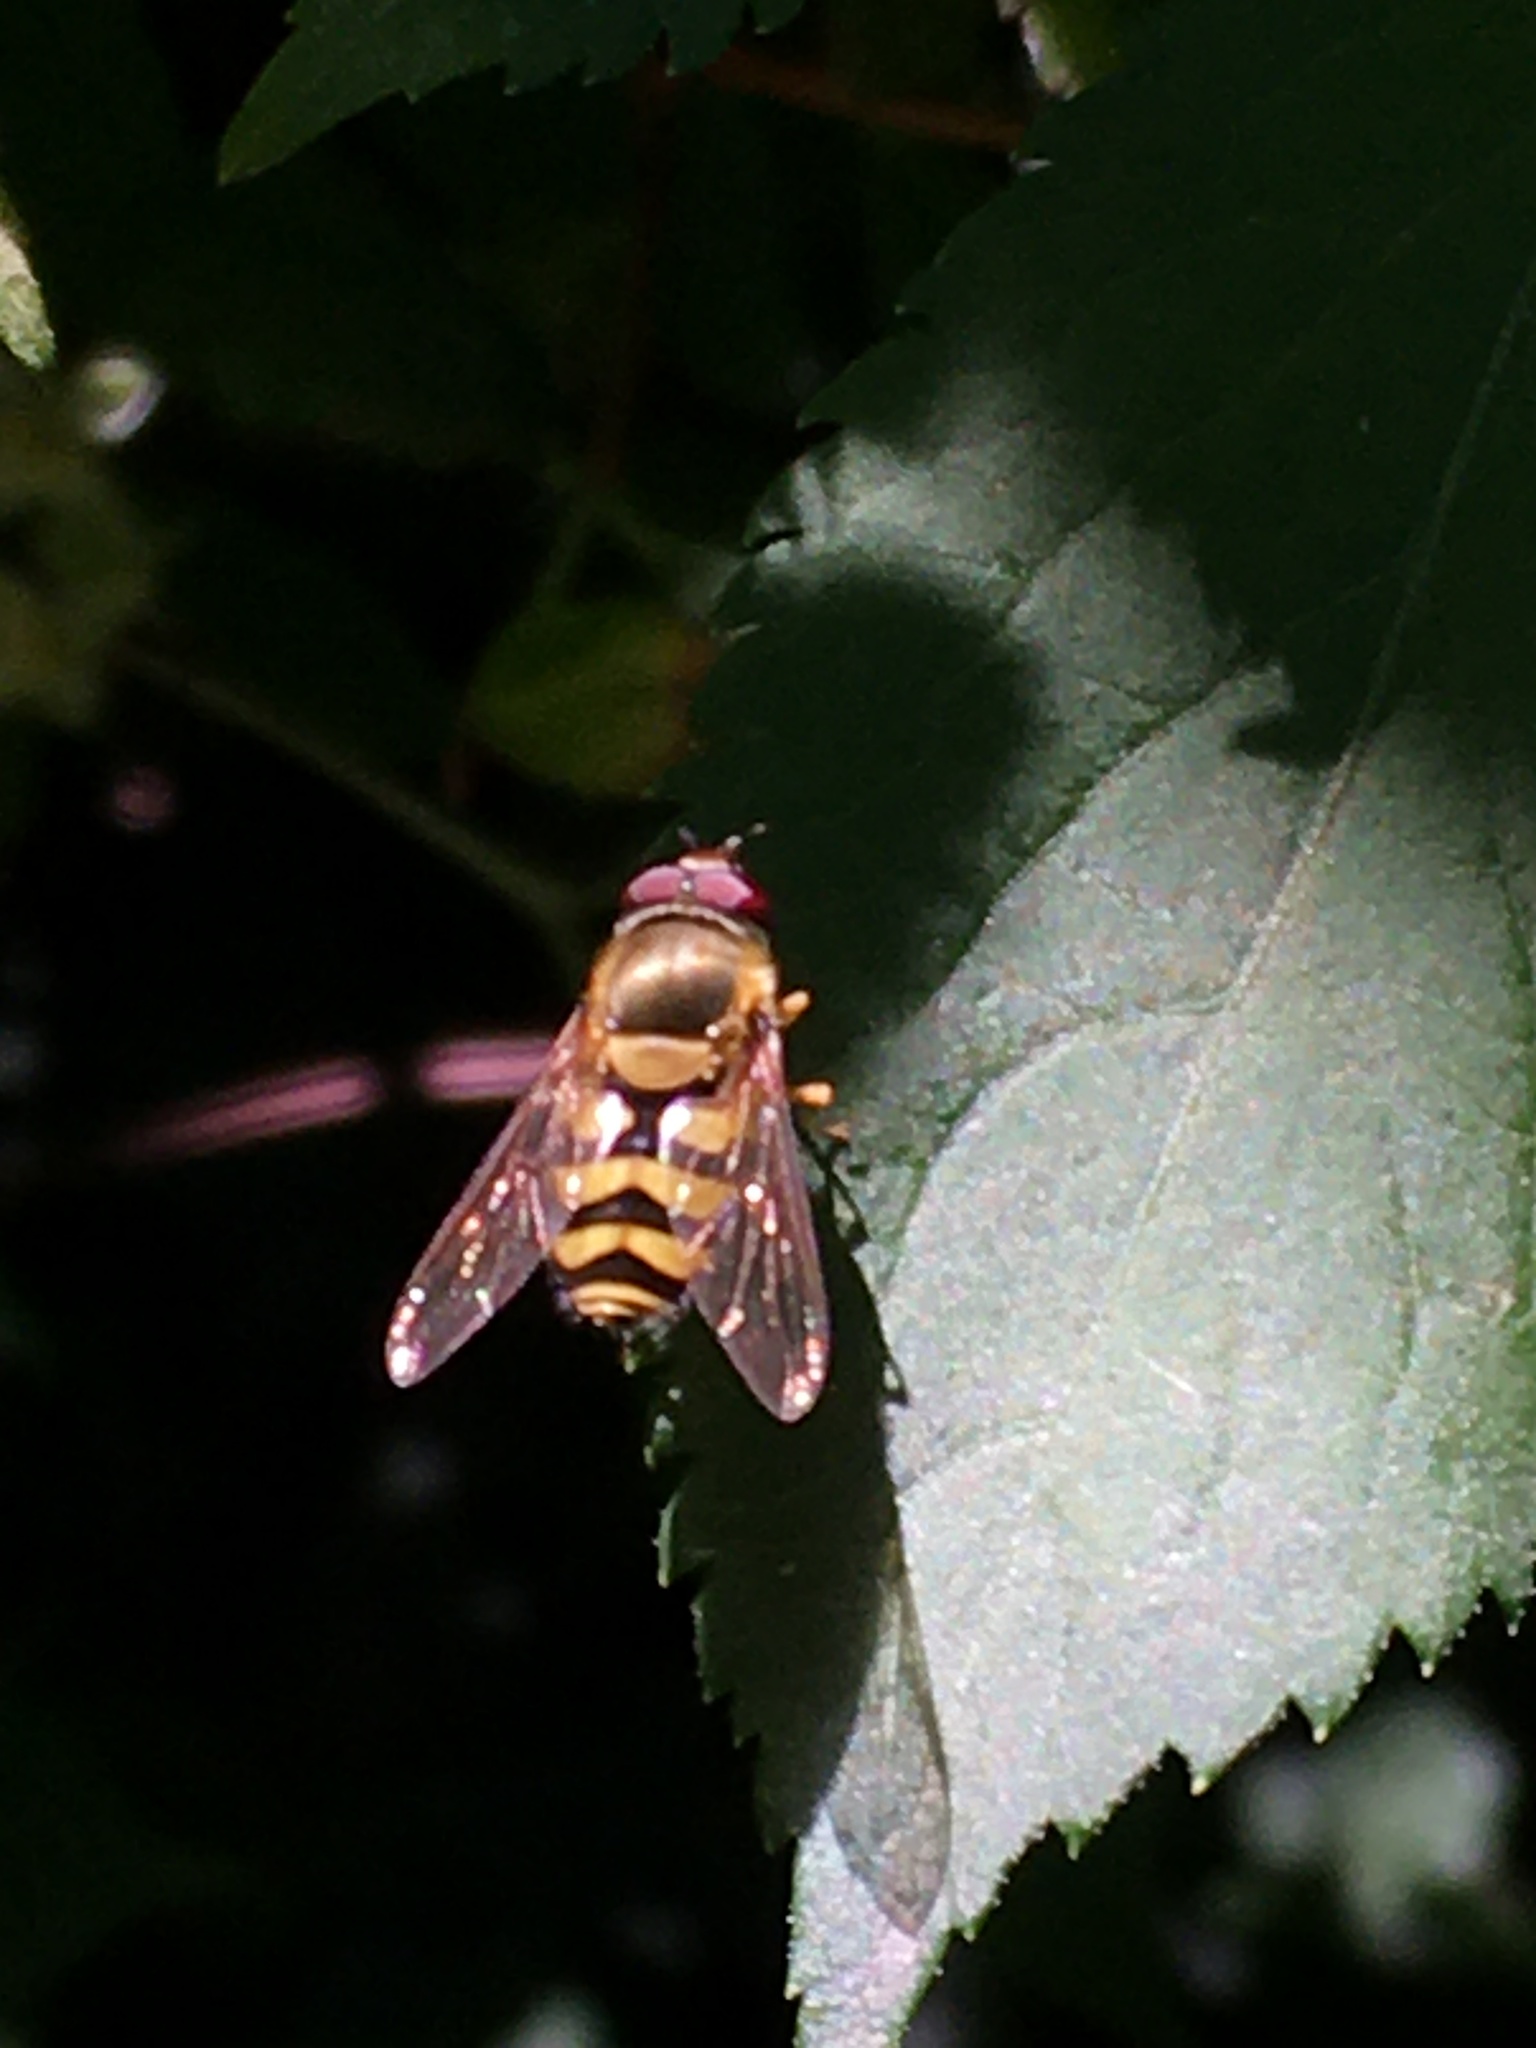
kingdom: Animalia
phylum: Arthropoda
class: Insecta
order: Diptera
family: Syrphidae
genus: Syrphus
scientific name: Syrphus
